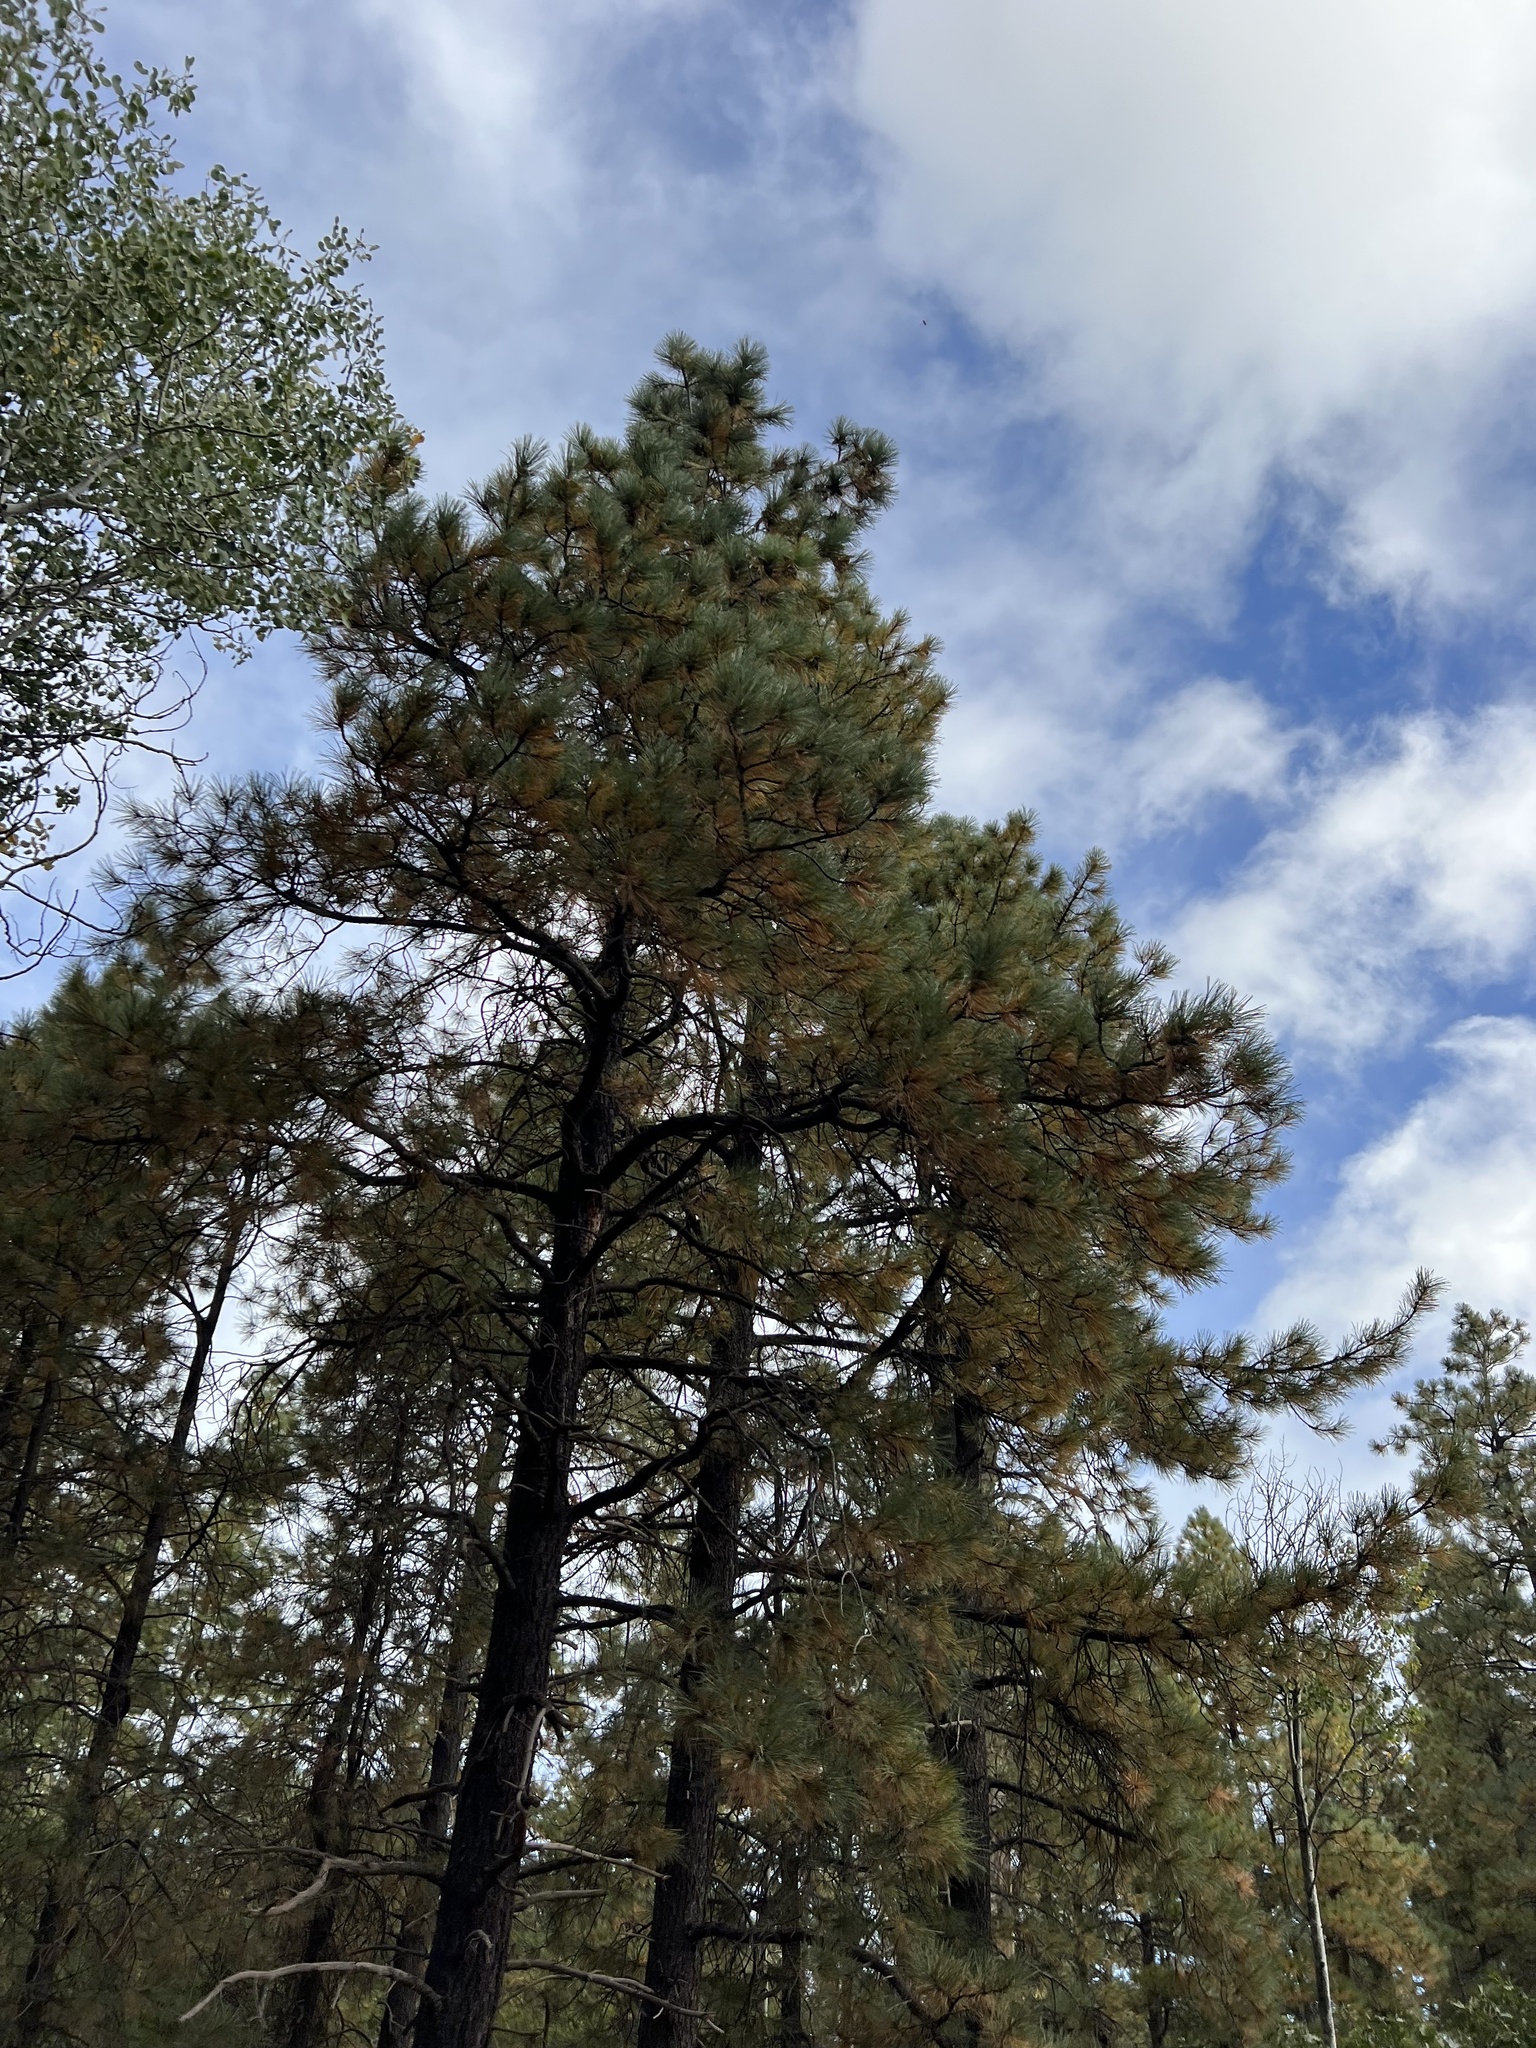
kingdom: Plantae
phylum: Tracheophyta
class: Pinopsida
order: Pinales
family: Pinaceae
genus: Pinus
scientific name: Pinus ponderosa
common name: Western yellow-pine
